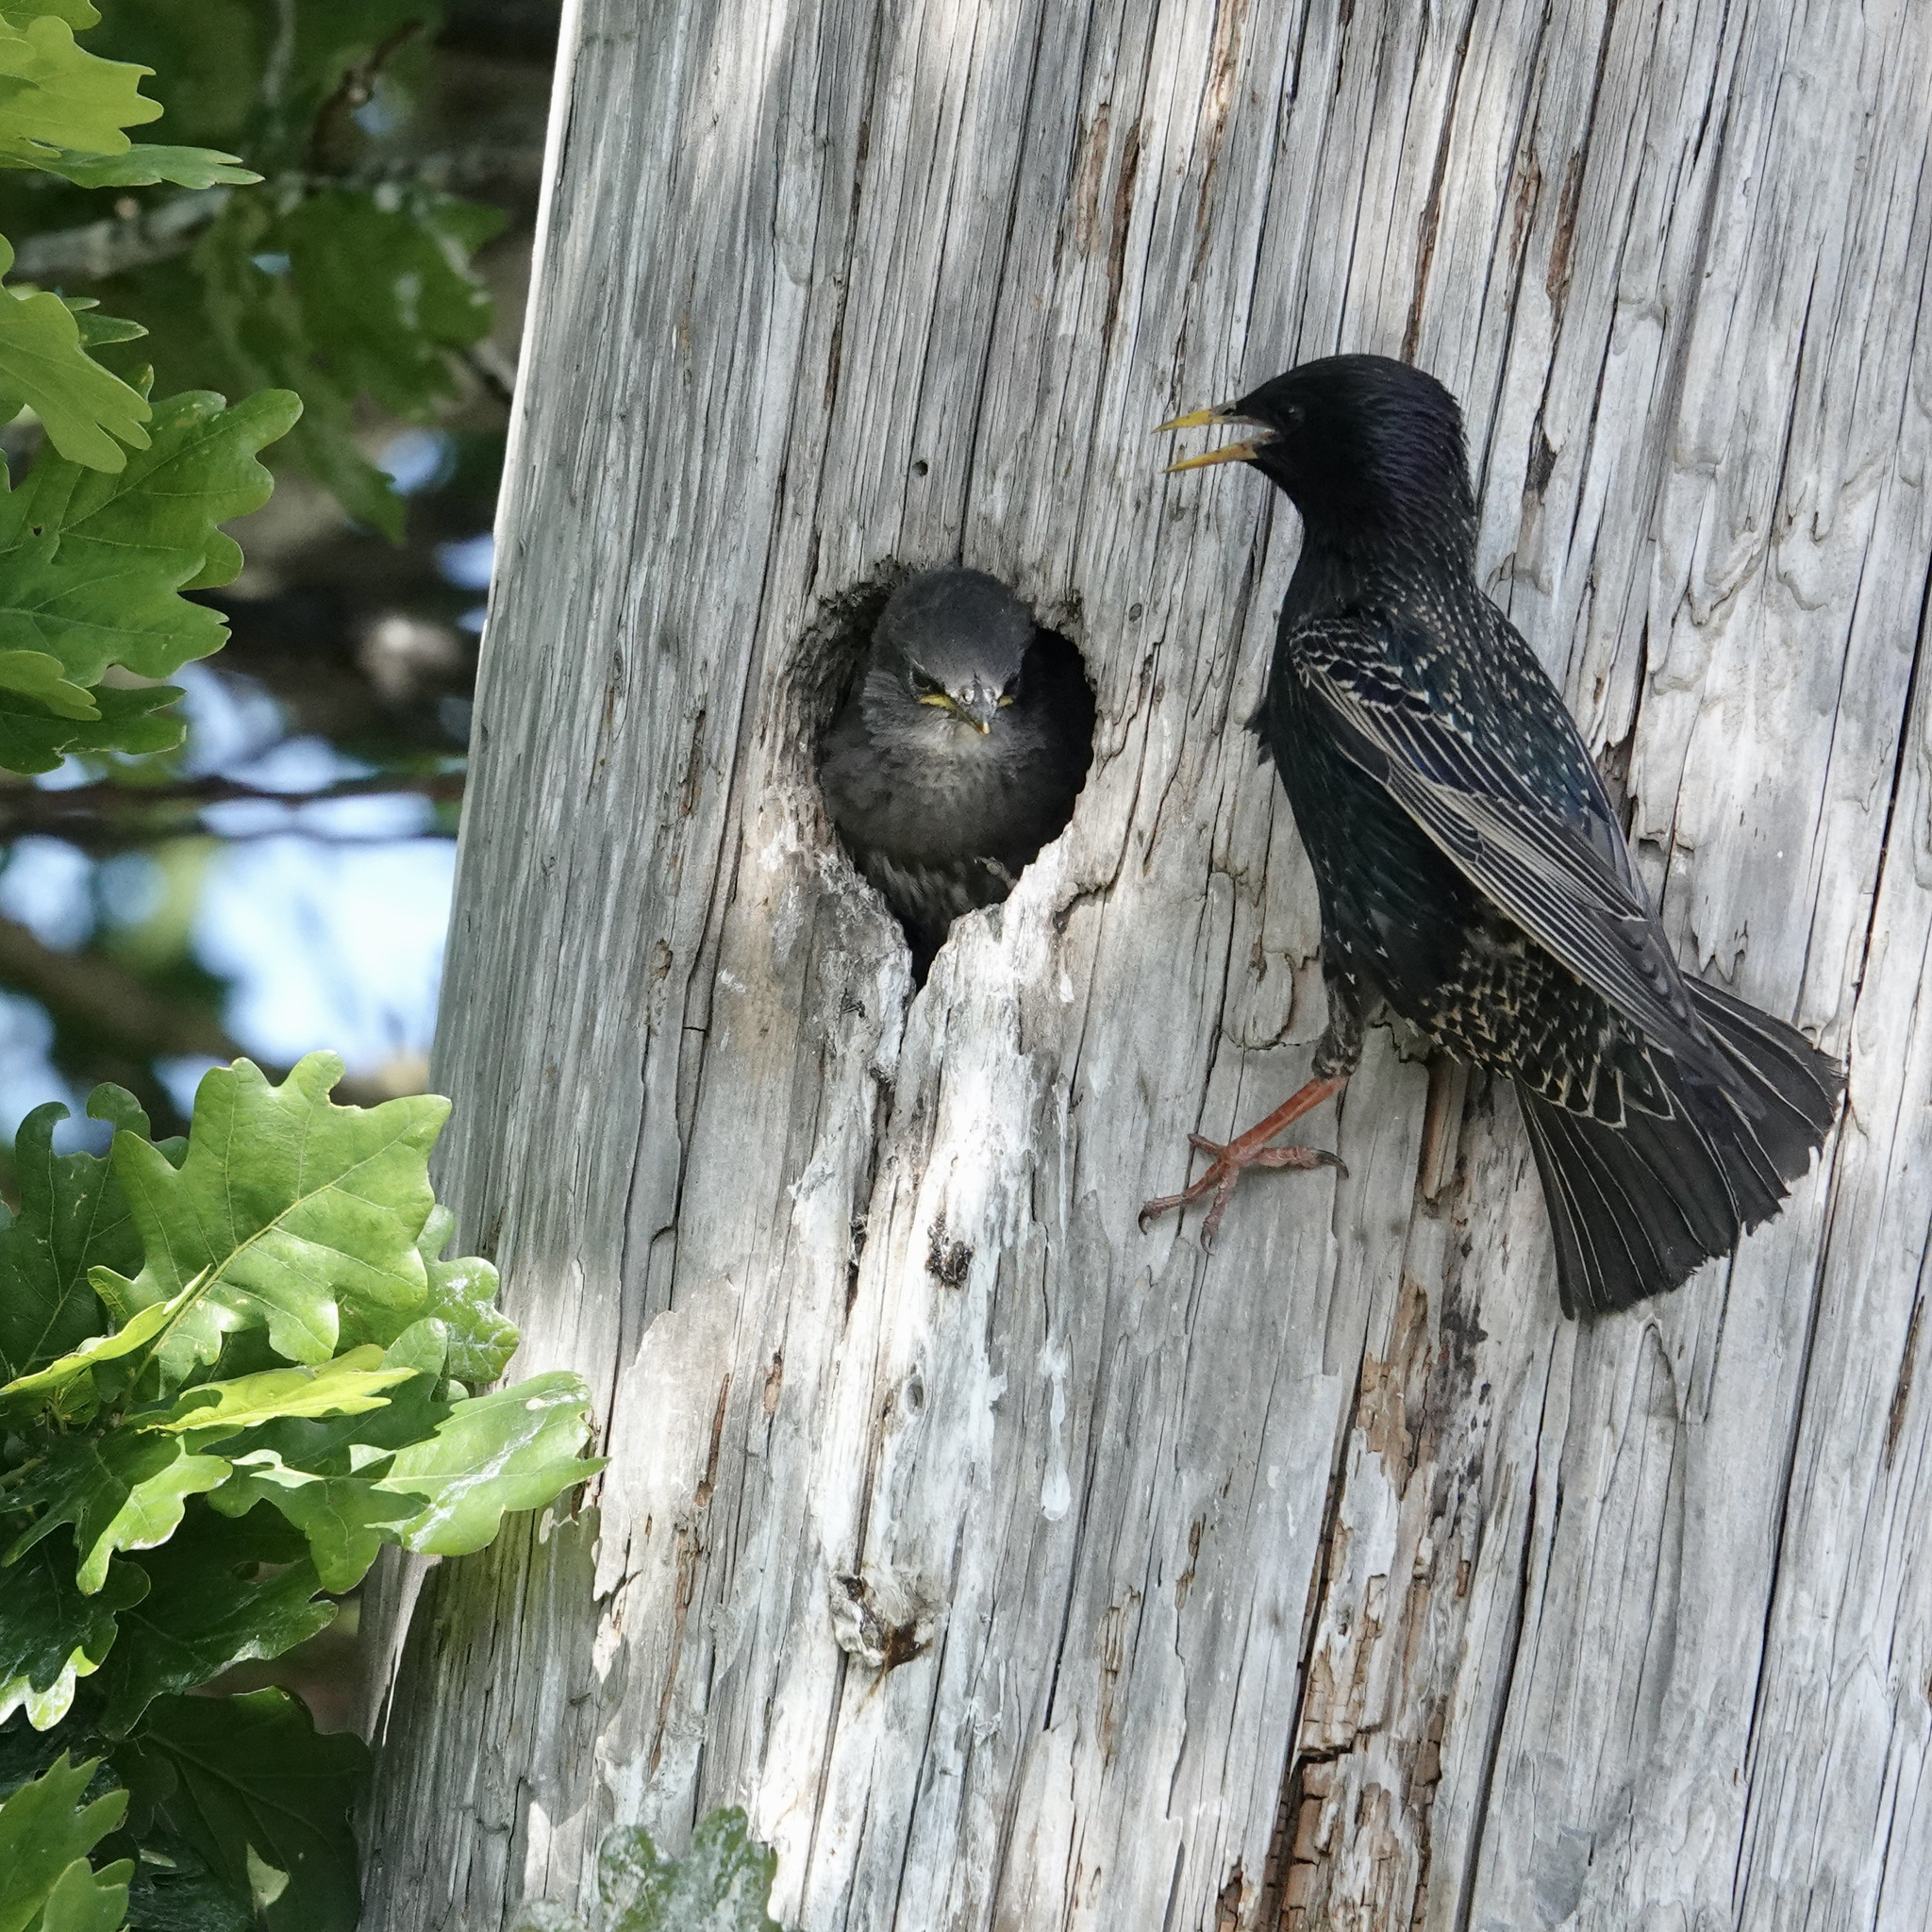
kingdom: Animalia
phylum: Chordata
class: Aves
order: Passeriformes
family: Sturnidae
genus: Sturnus
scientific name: Sturnus vulgaris
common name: Common starling
